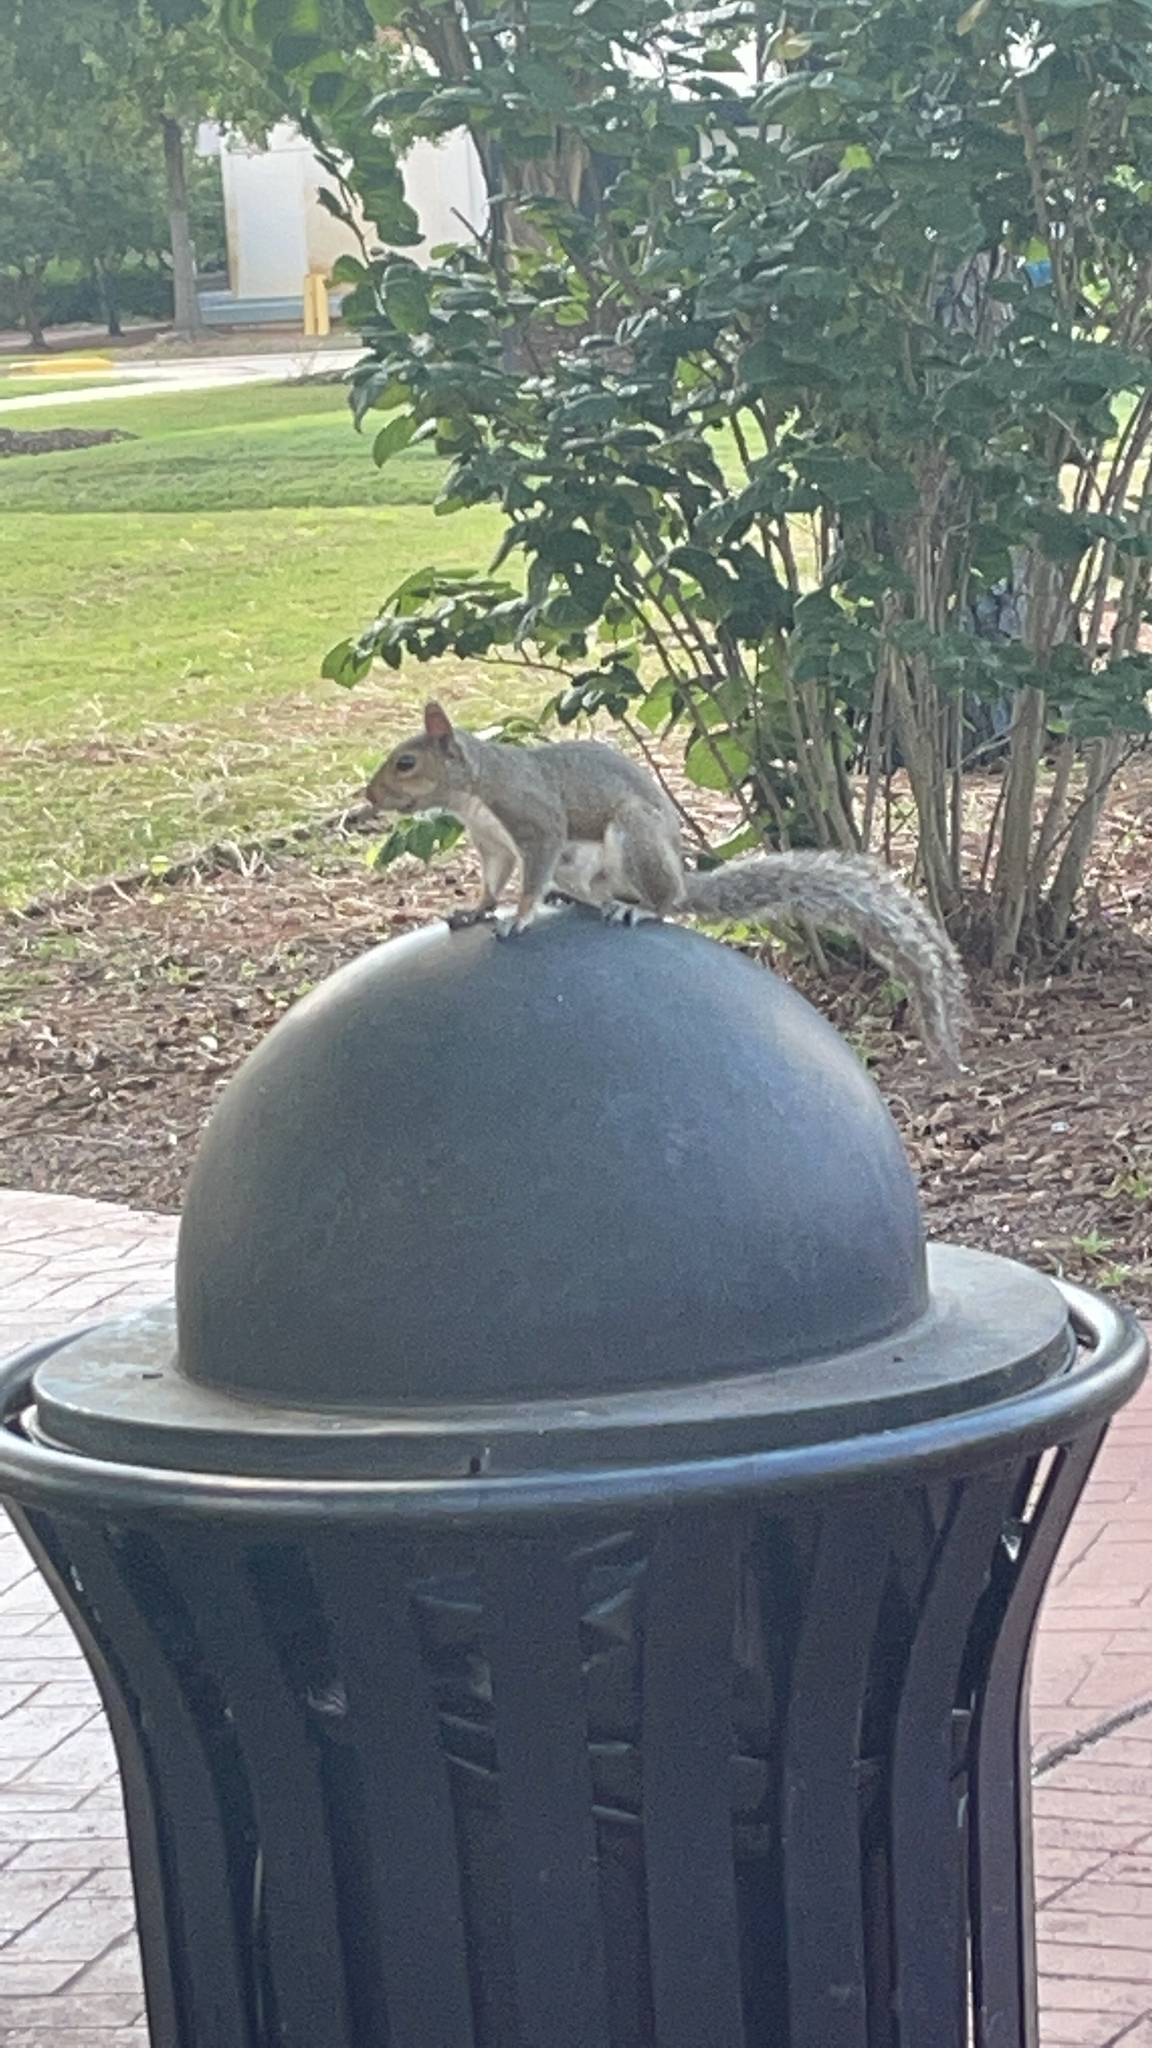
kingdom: Animalia
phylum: Chordata
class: Mammalia
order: Rodentia
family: Sciuridae
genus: Sciurus
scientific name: Sciurus carolinensis
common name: Eastern gray squirrel
